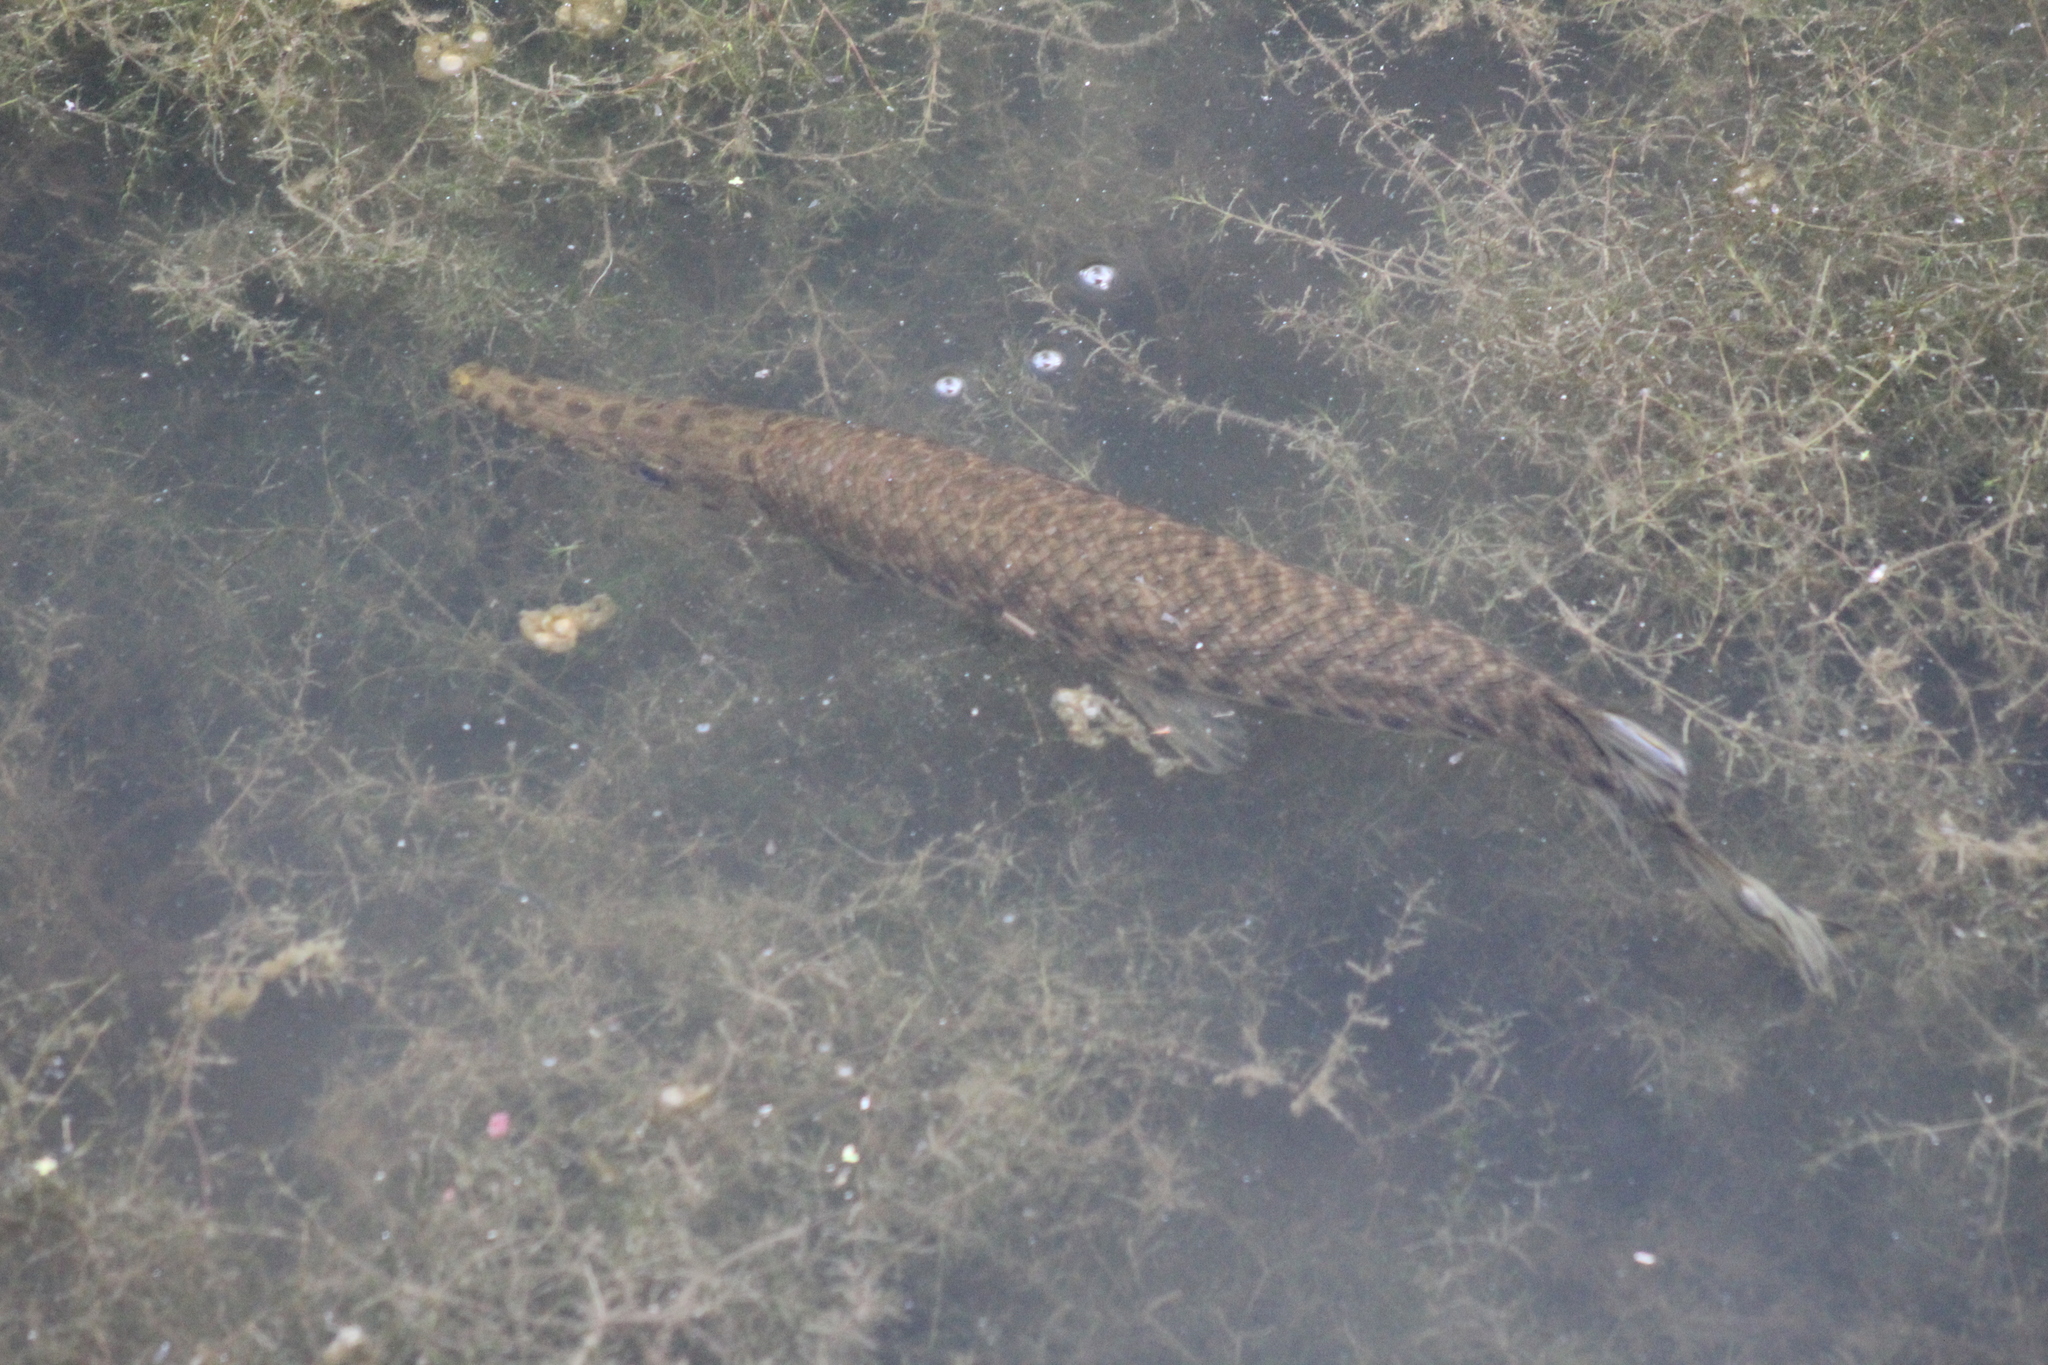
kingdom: Animalia
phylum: Chordata
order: Lepisosteiformes
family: Lepisosteidae
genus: Lepisosteus
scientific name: Lepisosteus oculatus
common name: Spotted gar
